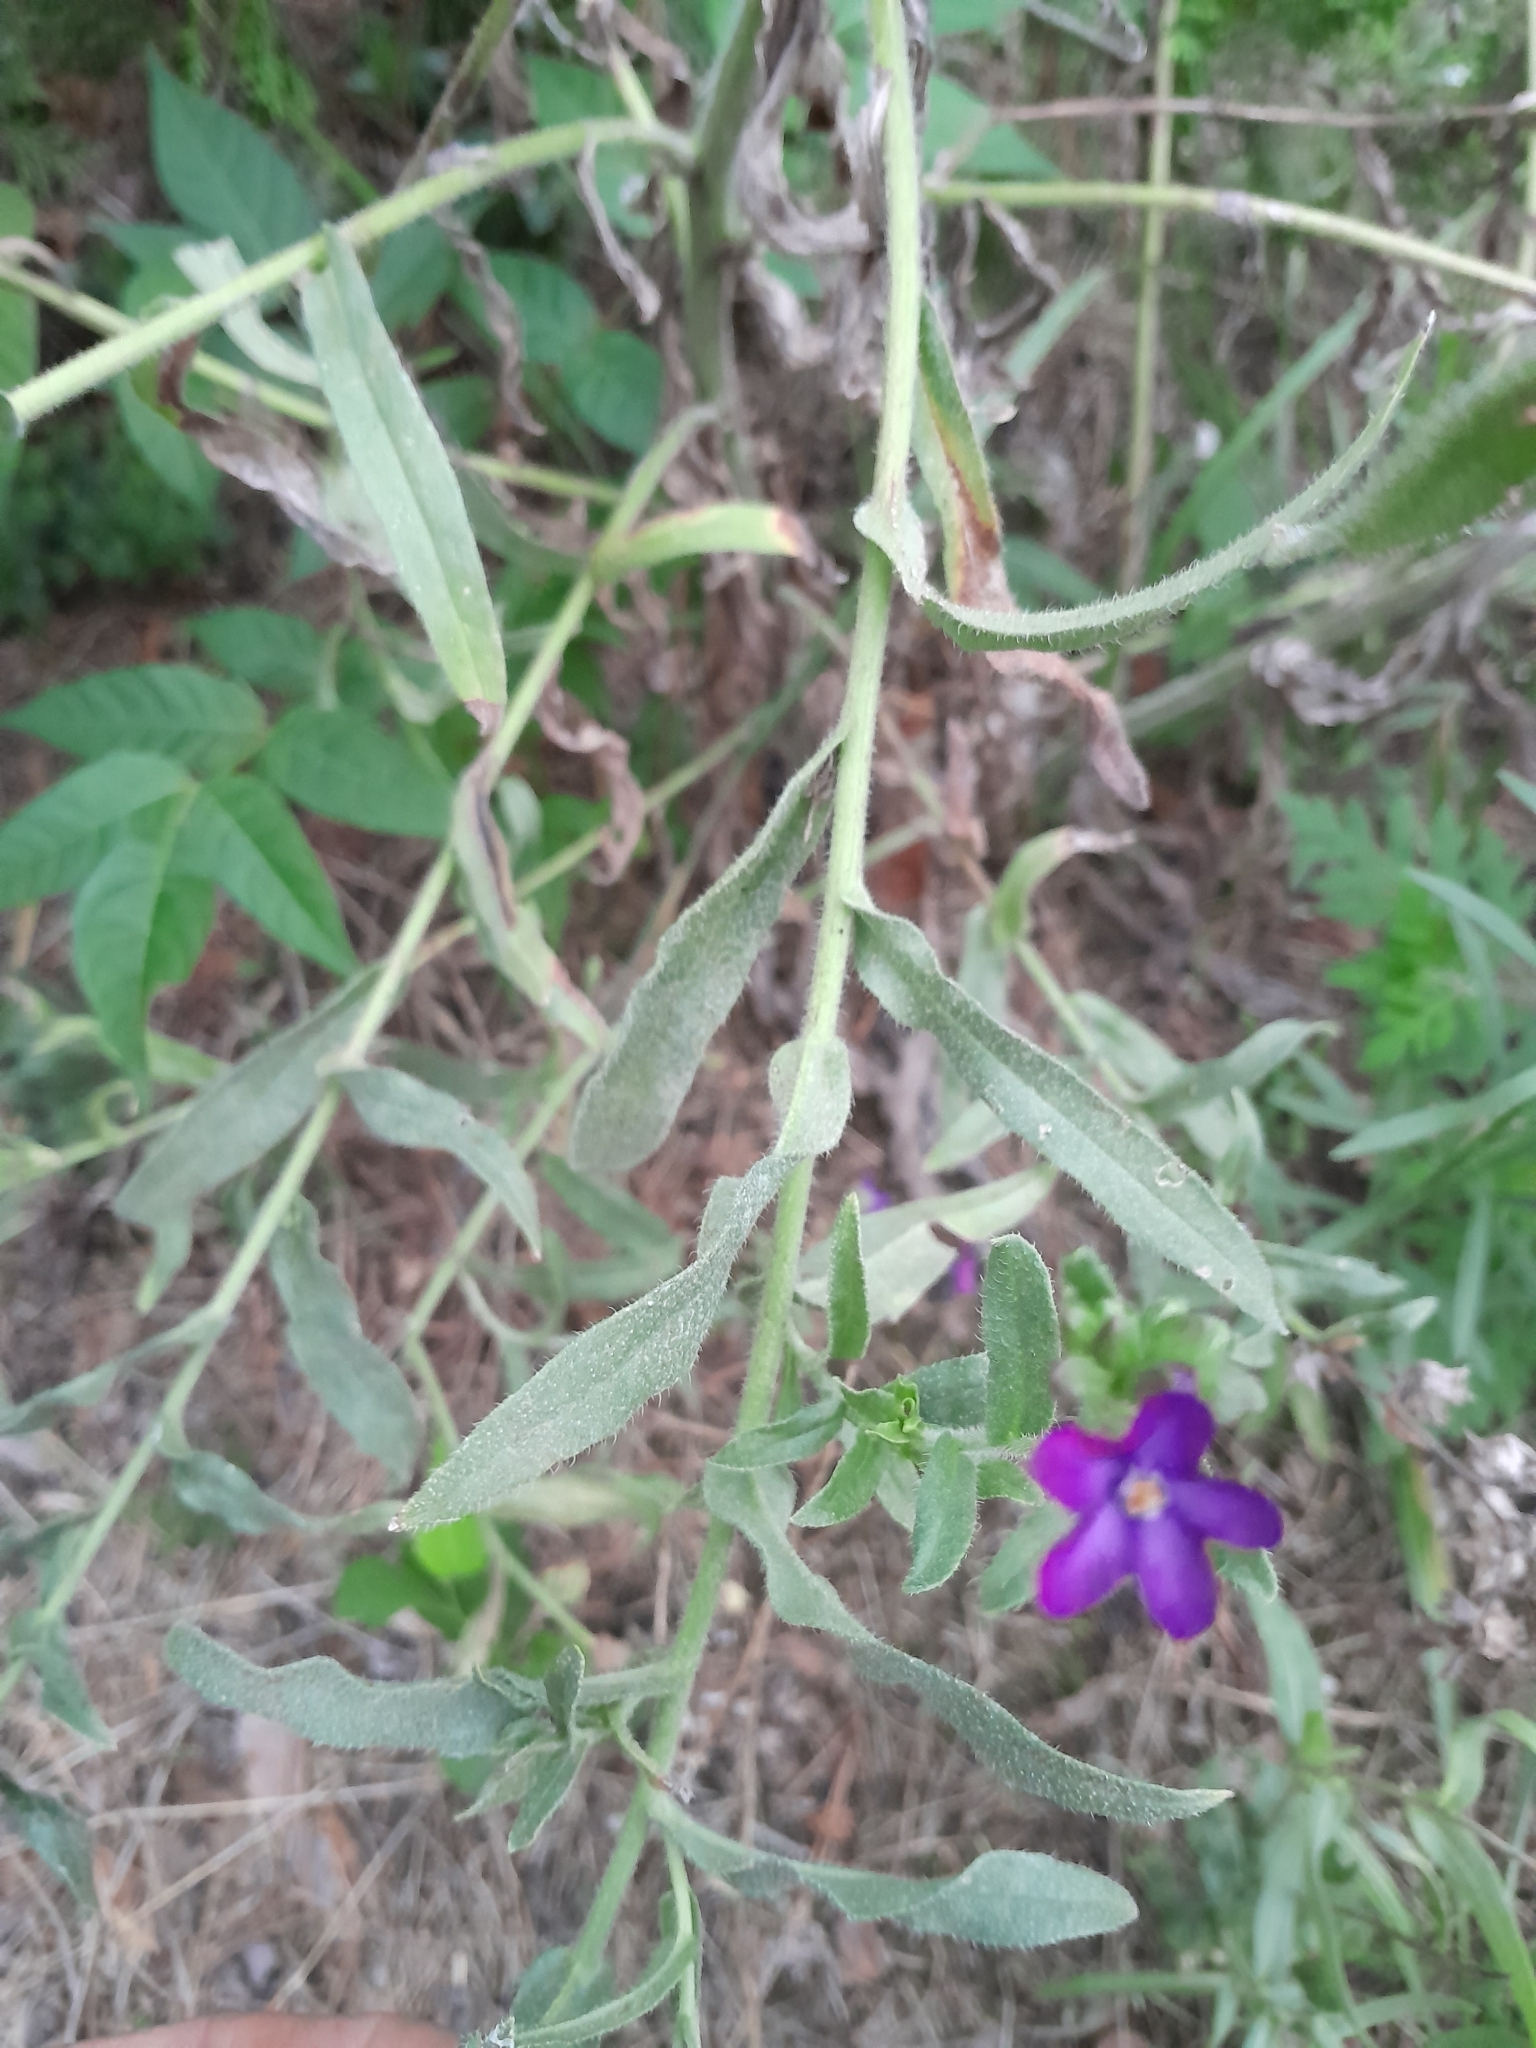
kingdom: Plantae
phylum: Tracheophyta
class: Magnoliopsida
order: Boraginales
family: Boraginaceae
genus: Anchusa
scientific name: Anchusa officinalis
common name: Alkanet
